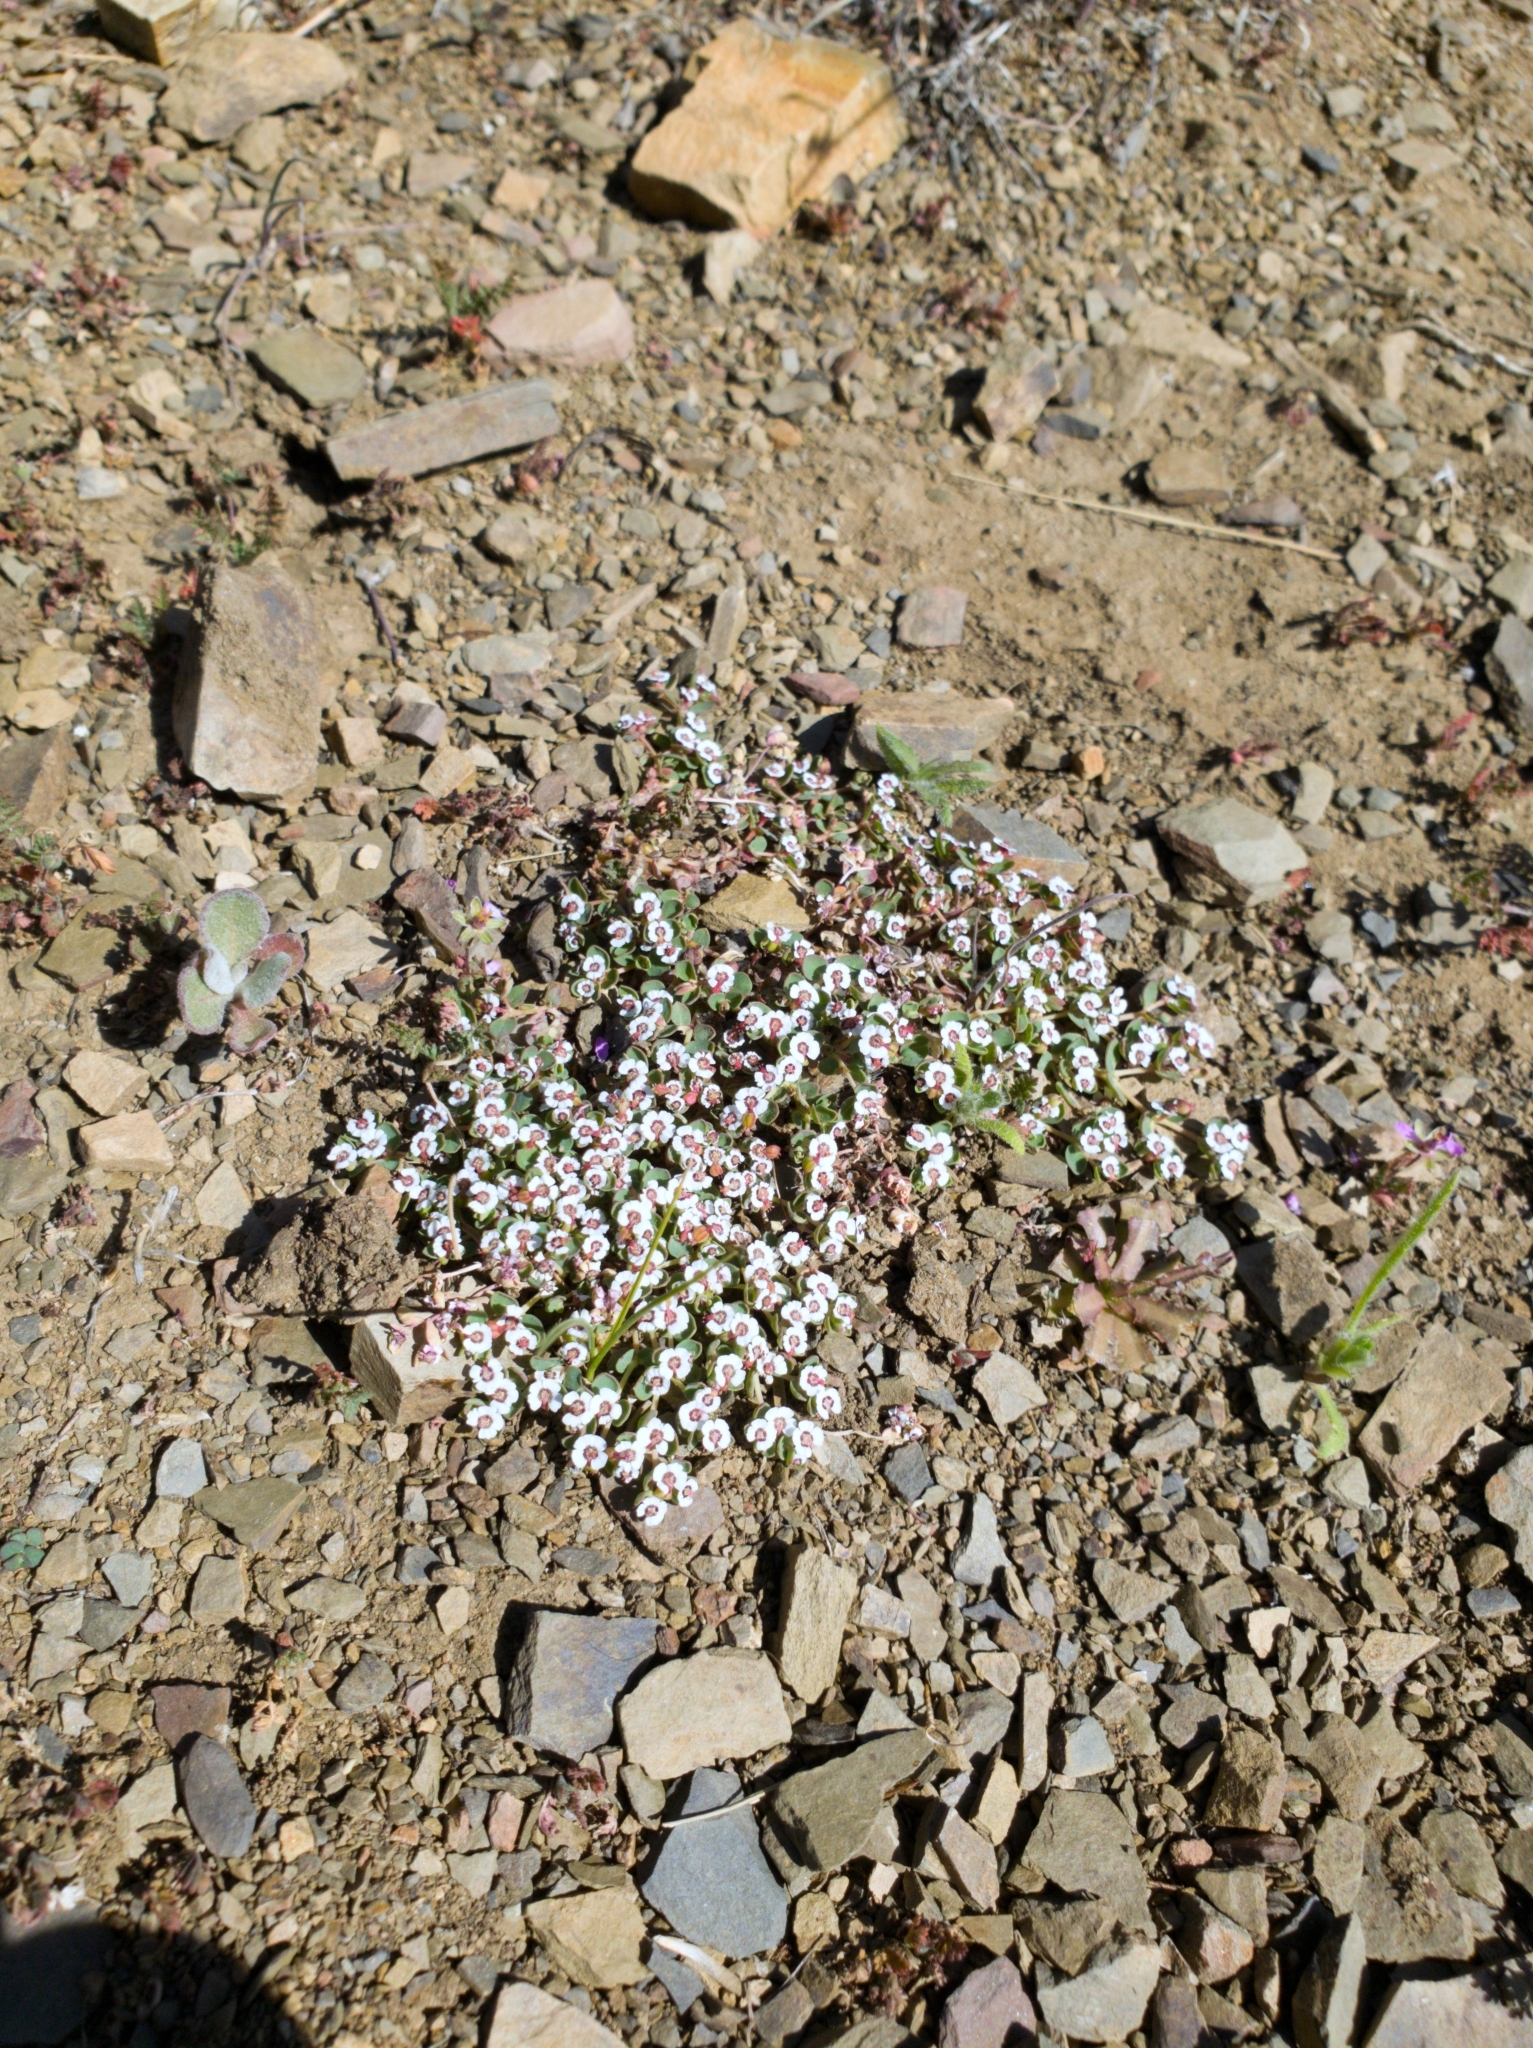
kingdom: Plantae
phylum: Tracheophyta
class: Magnoliopsida
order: Malpighiales
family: Euphorbiaceae
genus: Euphorbia
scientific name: Euphorbia polycarpa
